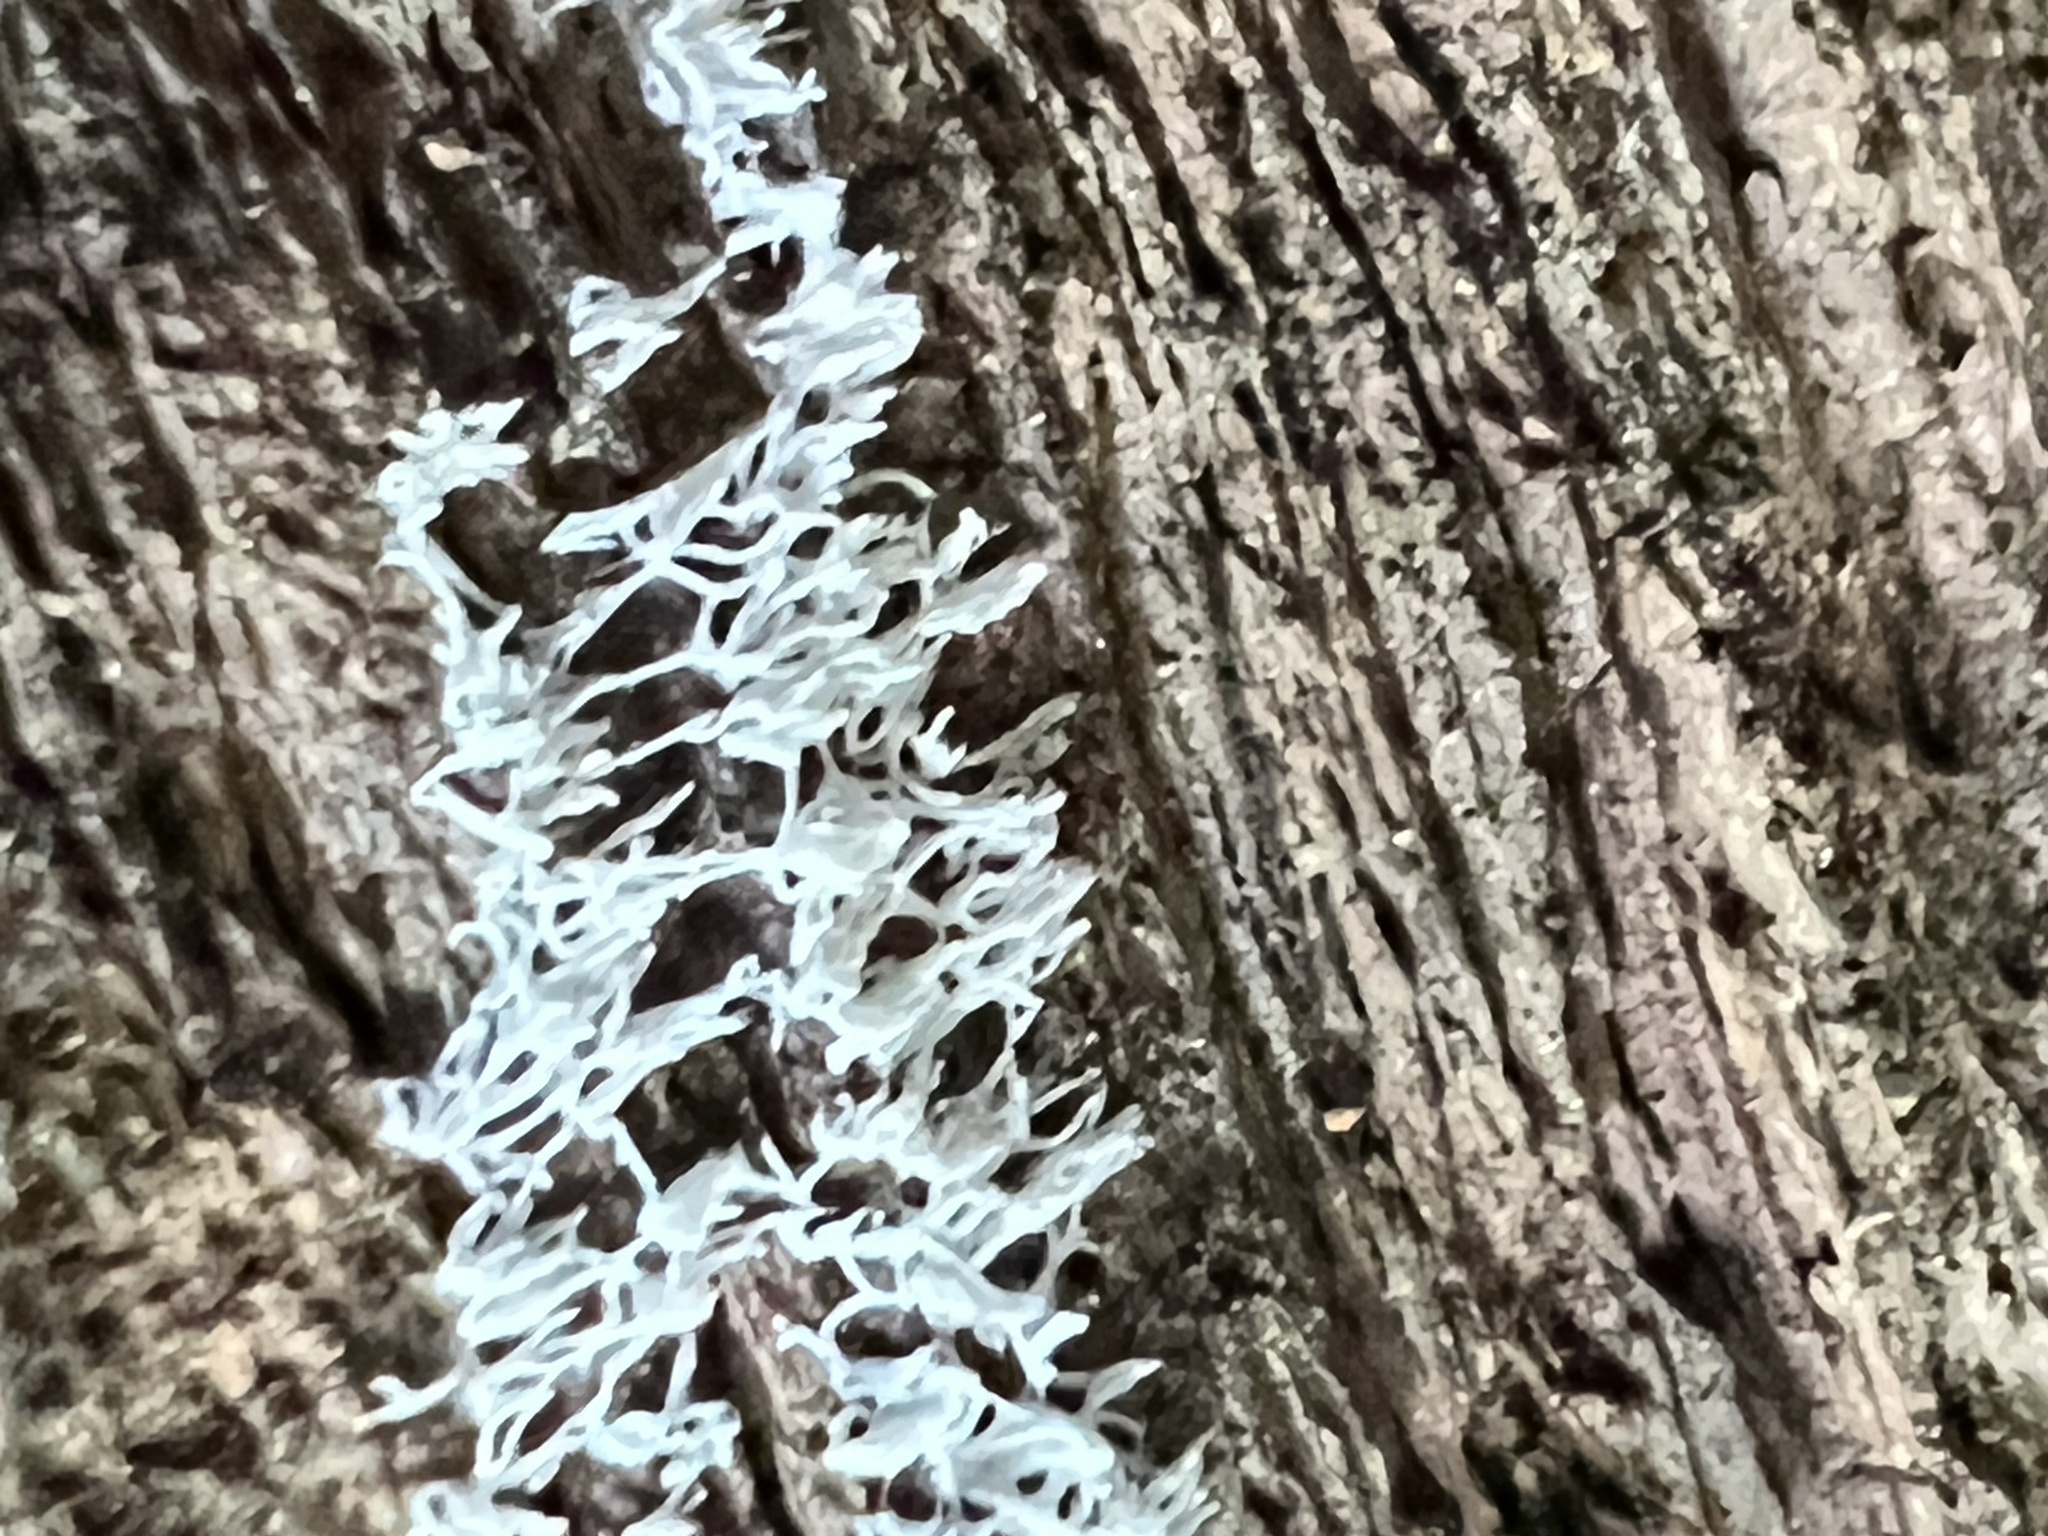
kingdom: Protozoa
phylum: Mycetozoa
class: Protosteliomycetes
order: Ceratiomyxales
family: Ceratiomyxaceae
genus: Ceratiomyxa
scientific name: Ceratiomyxa fruticulosa
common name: Honeycomb coral slime mold
